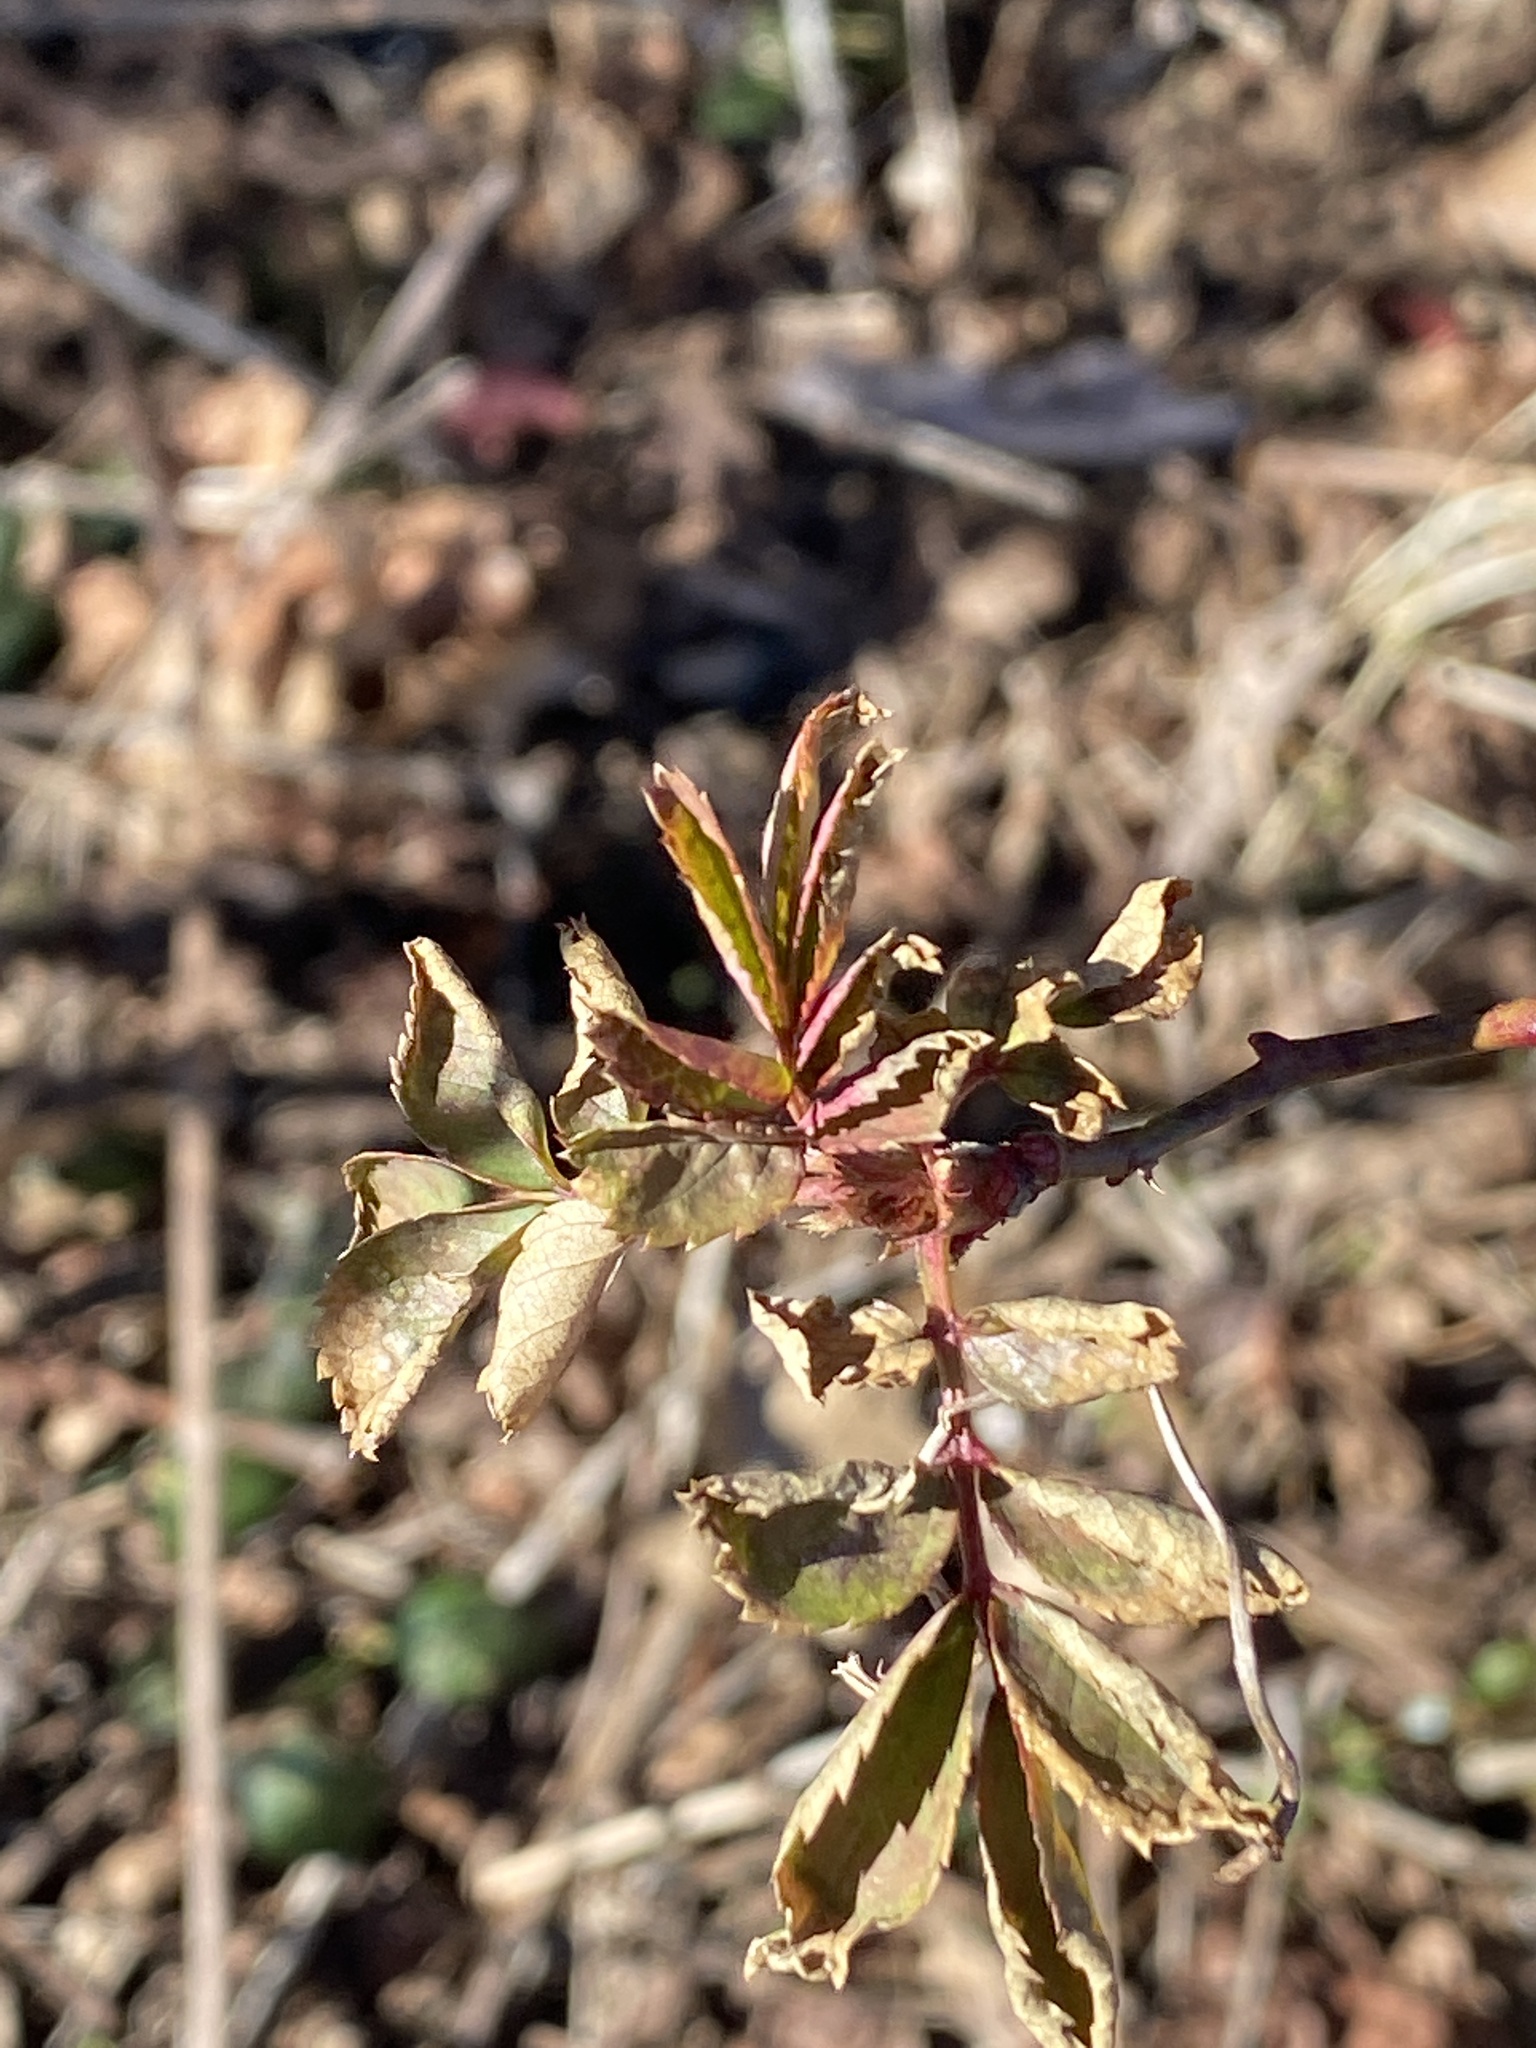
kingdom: Plantae
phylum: Tracheophyta
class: Magnoliopsida
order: Rosales
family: Rosaceae
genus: Rosa
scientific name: Rosa multiflora
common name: Multiflora rose
